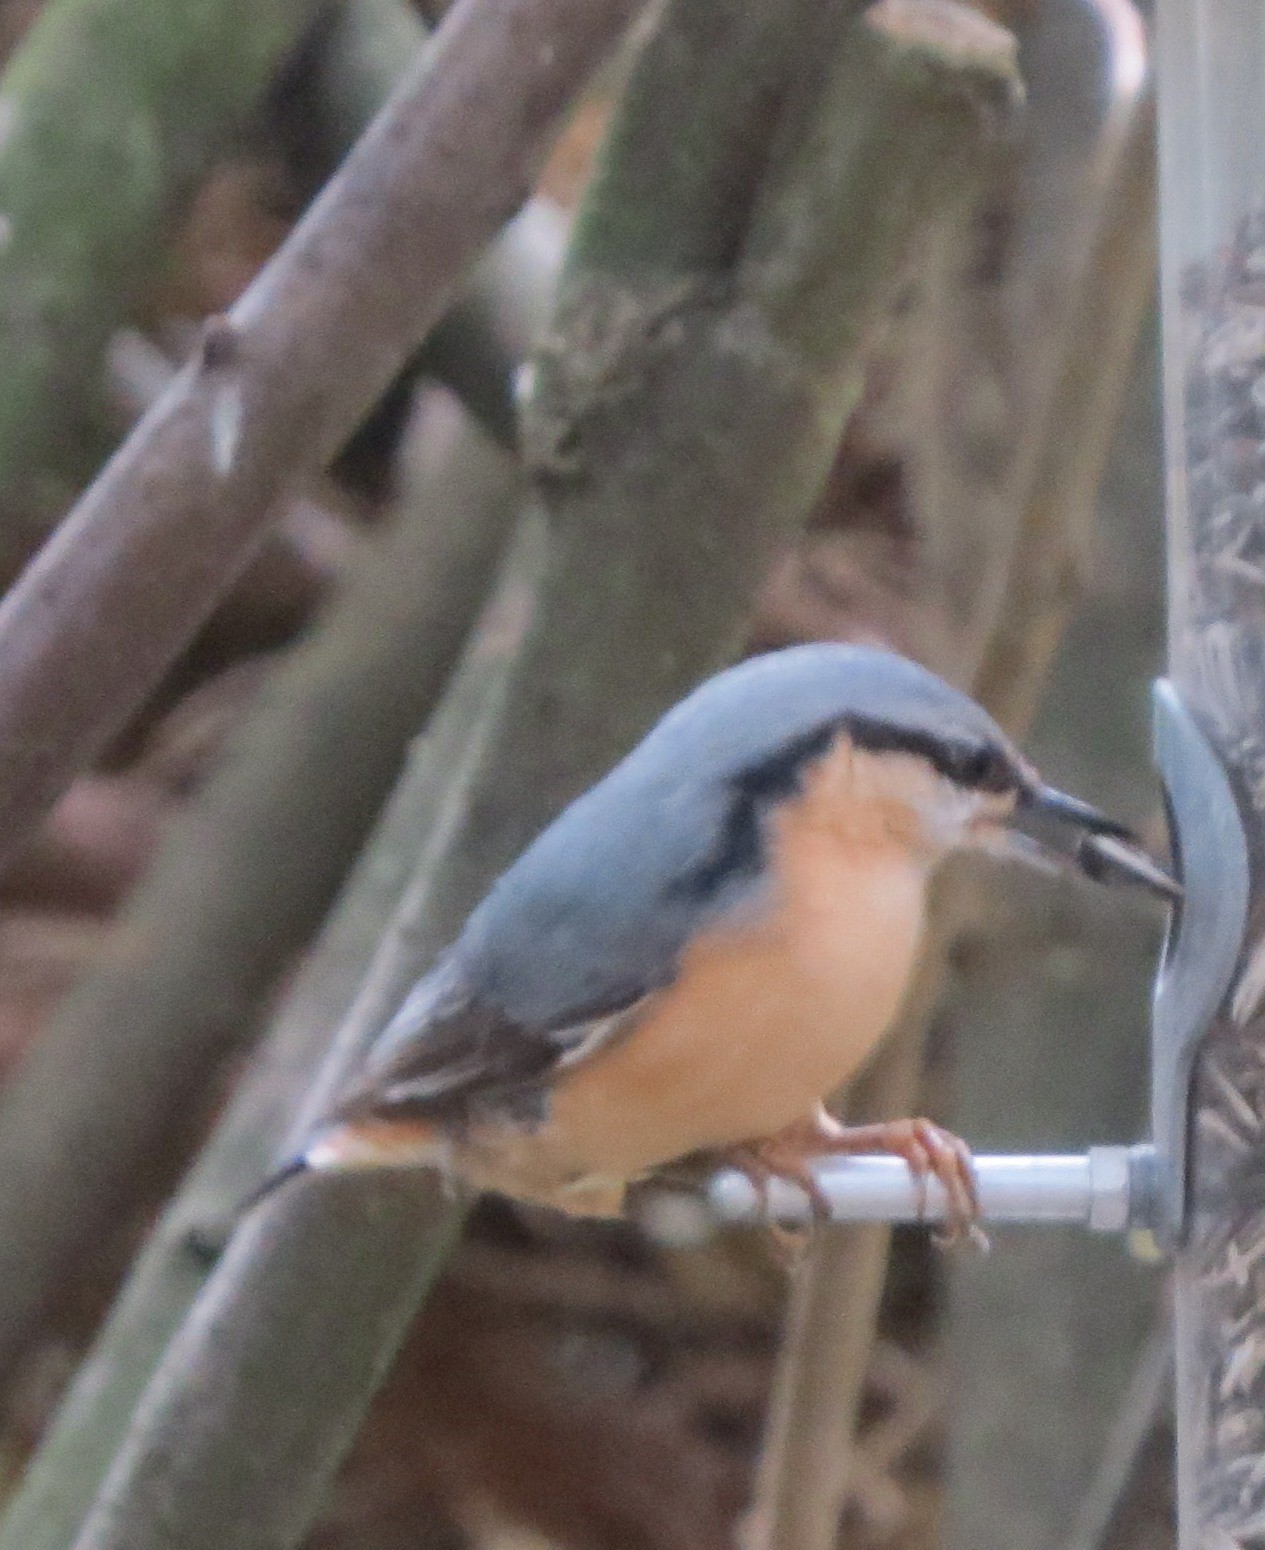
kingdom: Animalia
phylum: Chordata
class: Aves
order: Passeriformes
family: Sittidae
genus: Sitta
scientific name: Sitta europaea
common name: Eurasian nuthatch
